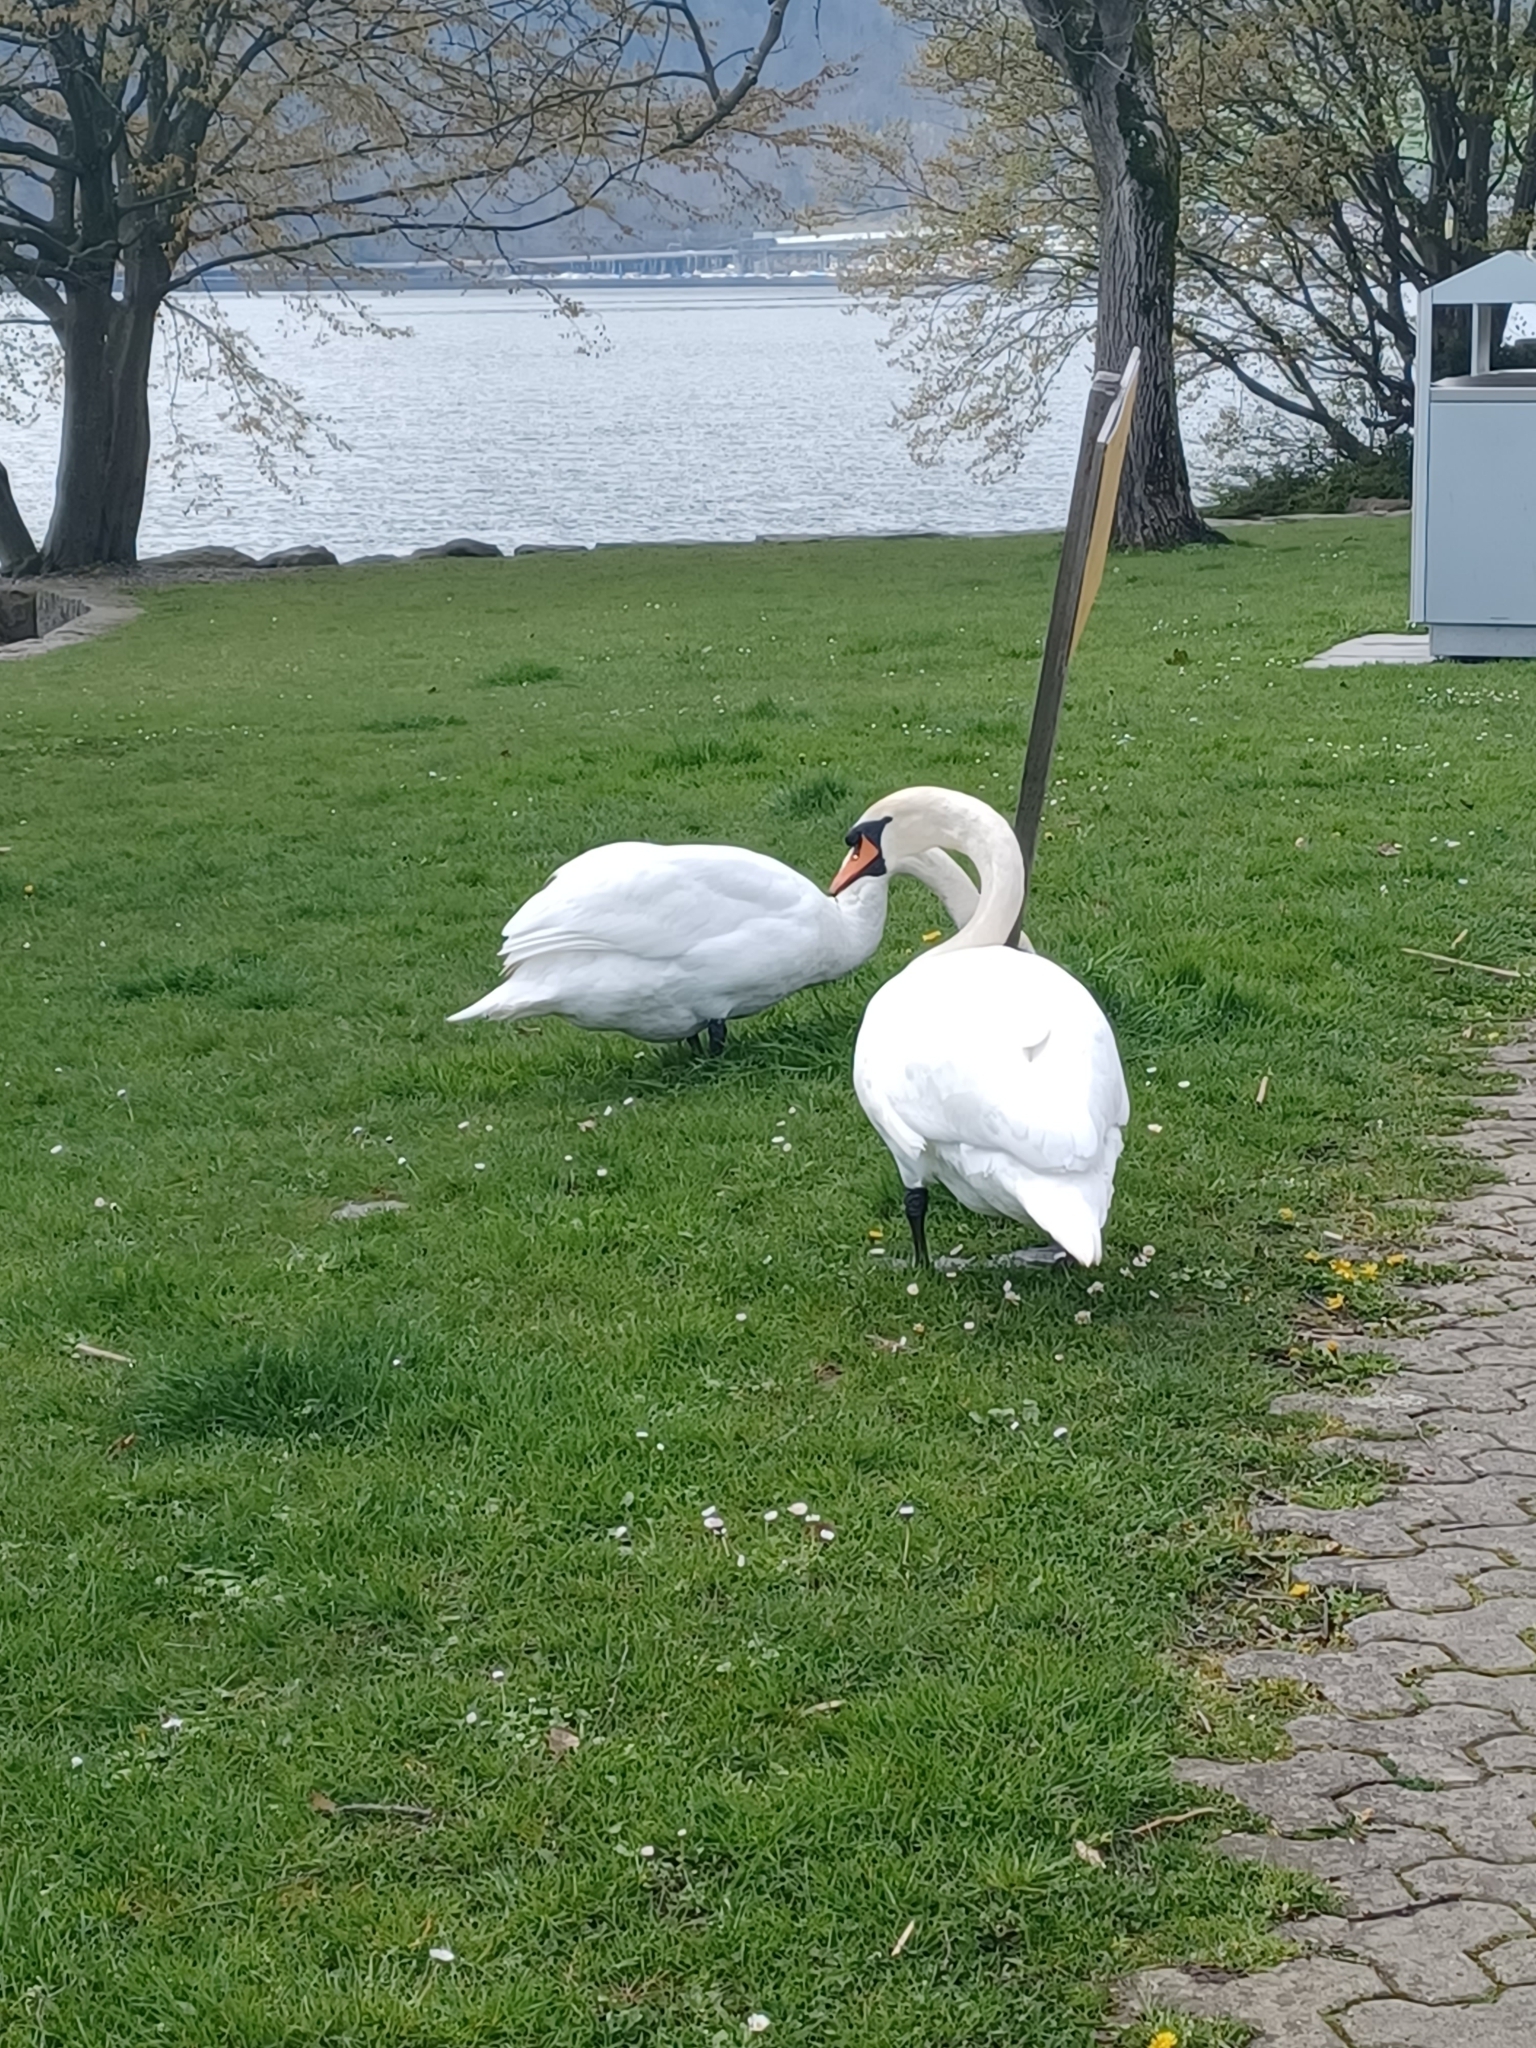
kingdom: Animalia
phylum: Chordata
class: Aves
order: Anseriformes
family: Anatidae
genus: Cygnus
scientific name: Cygnus olor
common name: Mute swan
